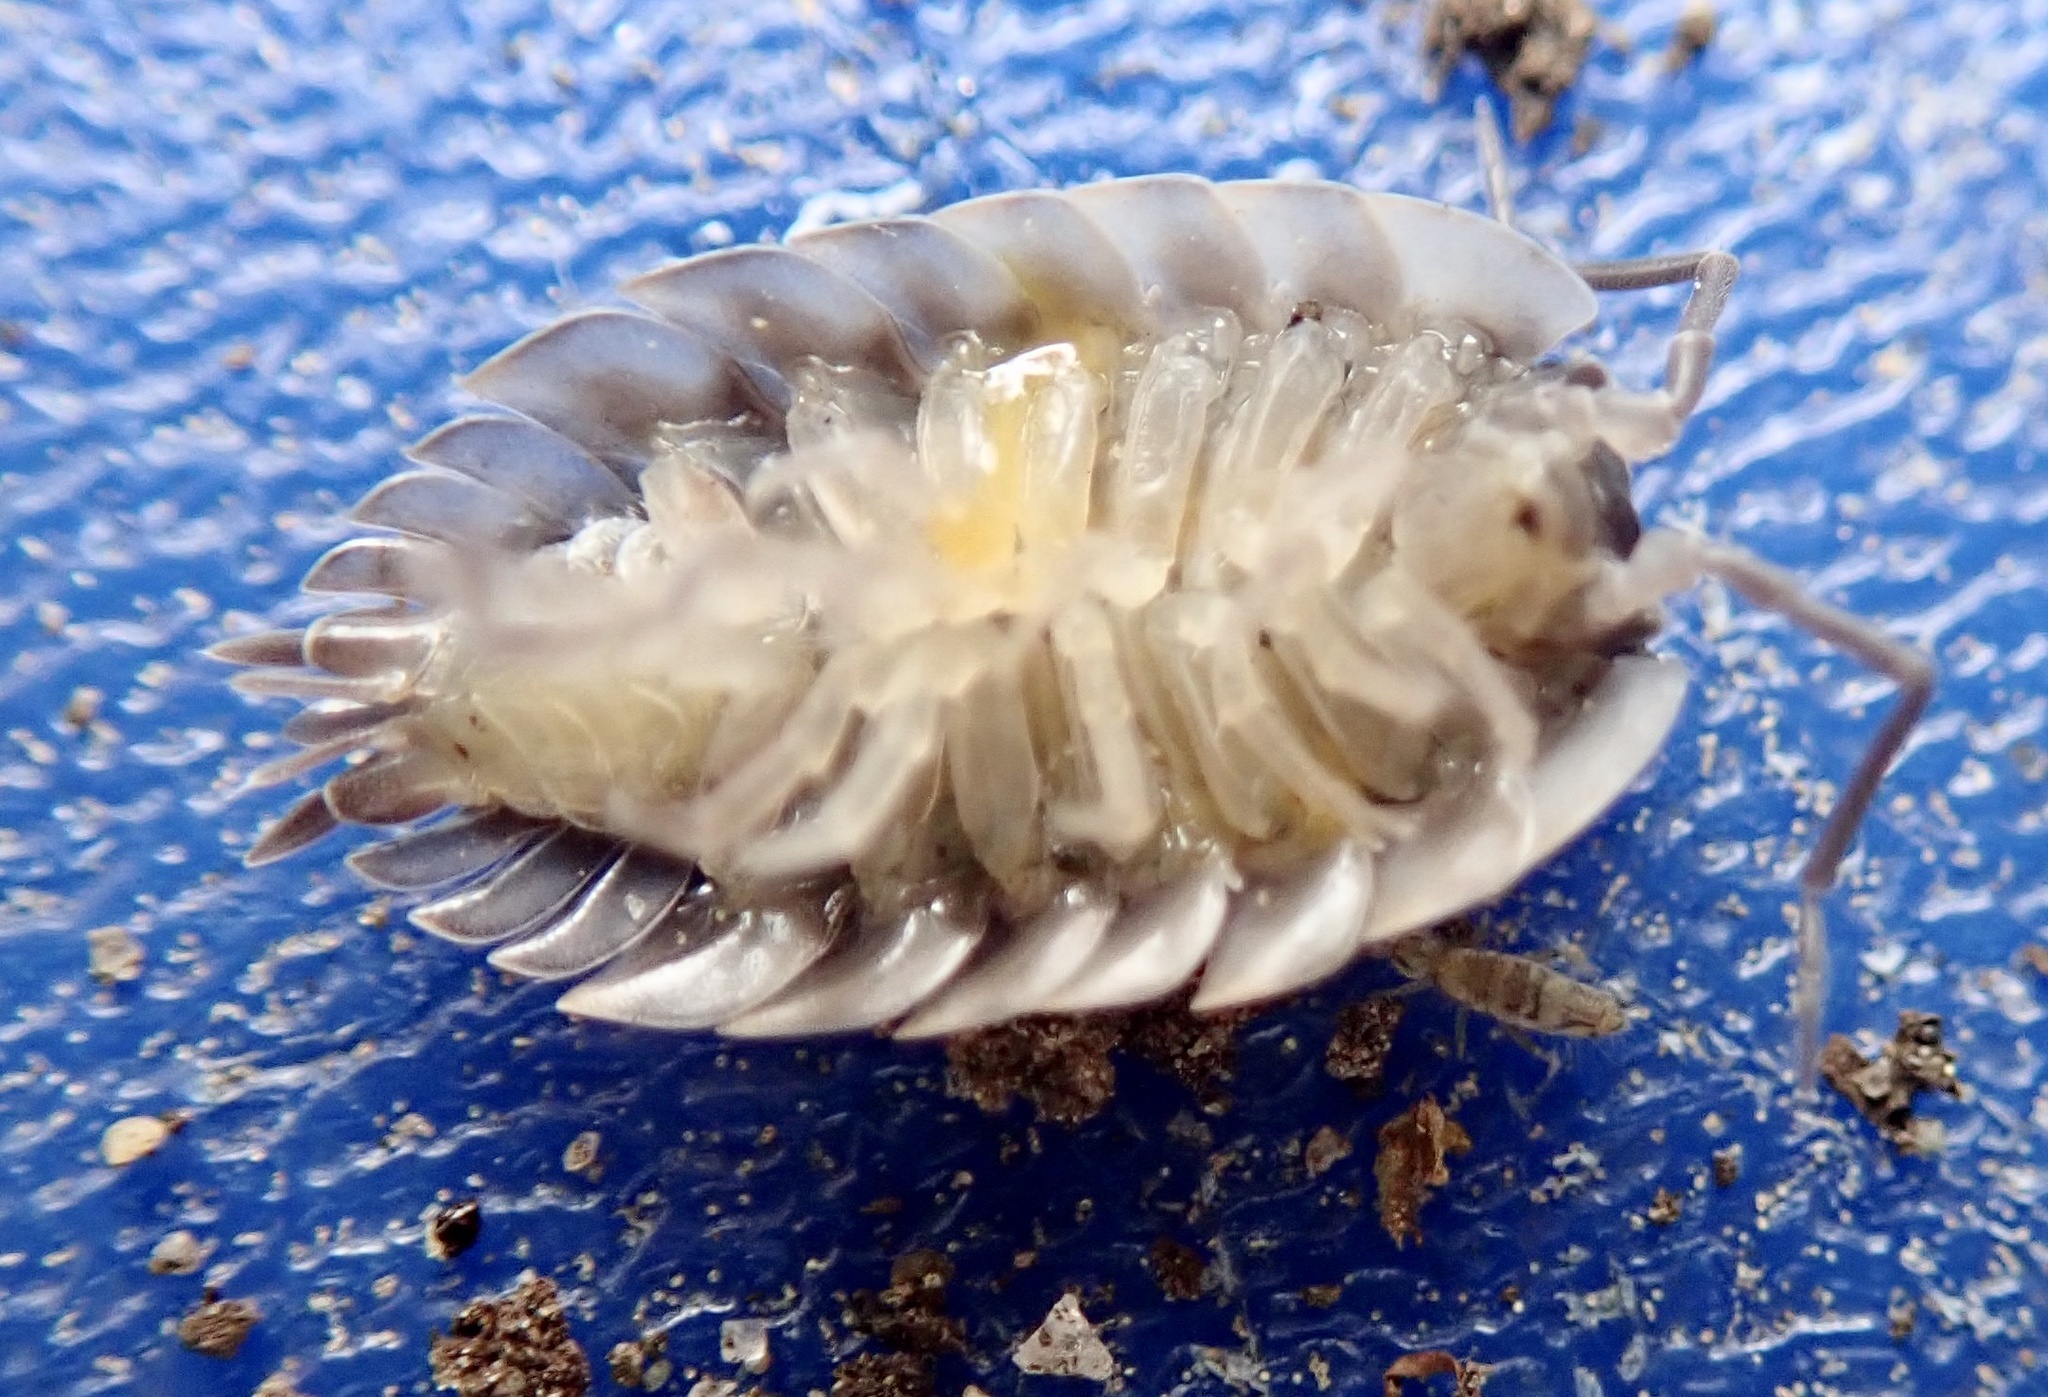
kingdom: Animalia
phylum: Arthropoda
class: Malacostraca
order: Isopoda
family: Oniscidae
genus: Oniscus
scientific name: Oniscus asellus
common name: Common shiny woodlouse
